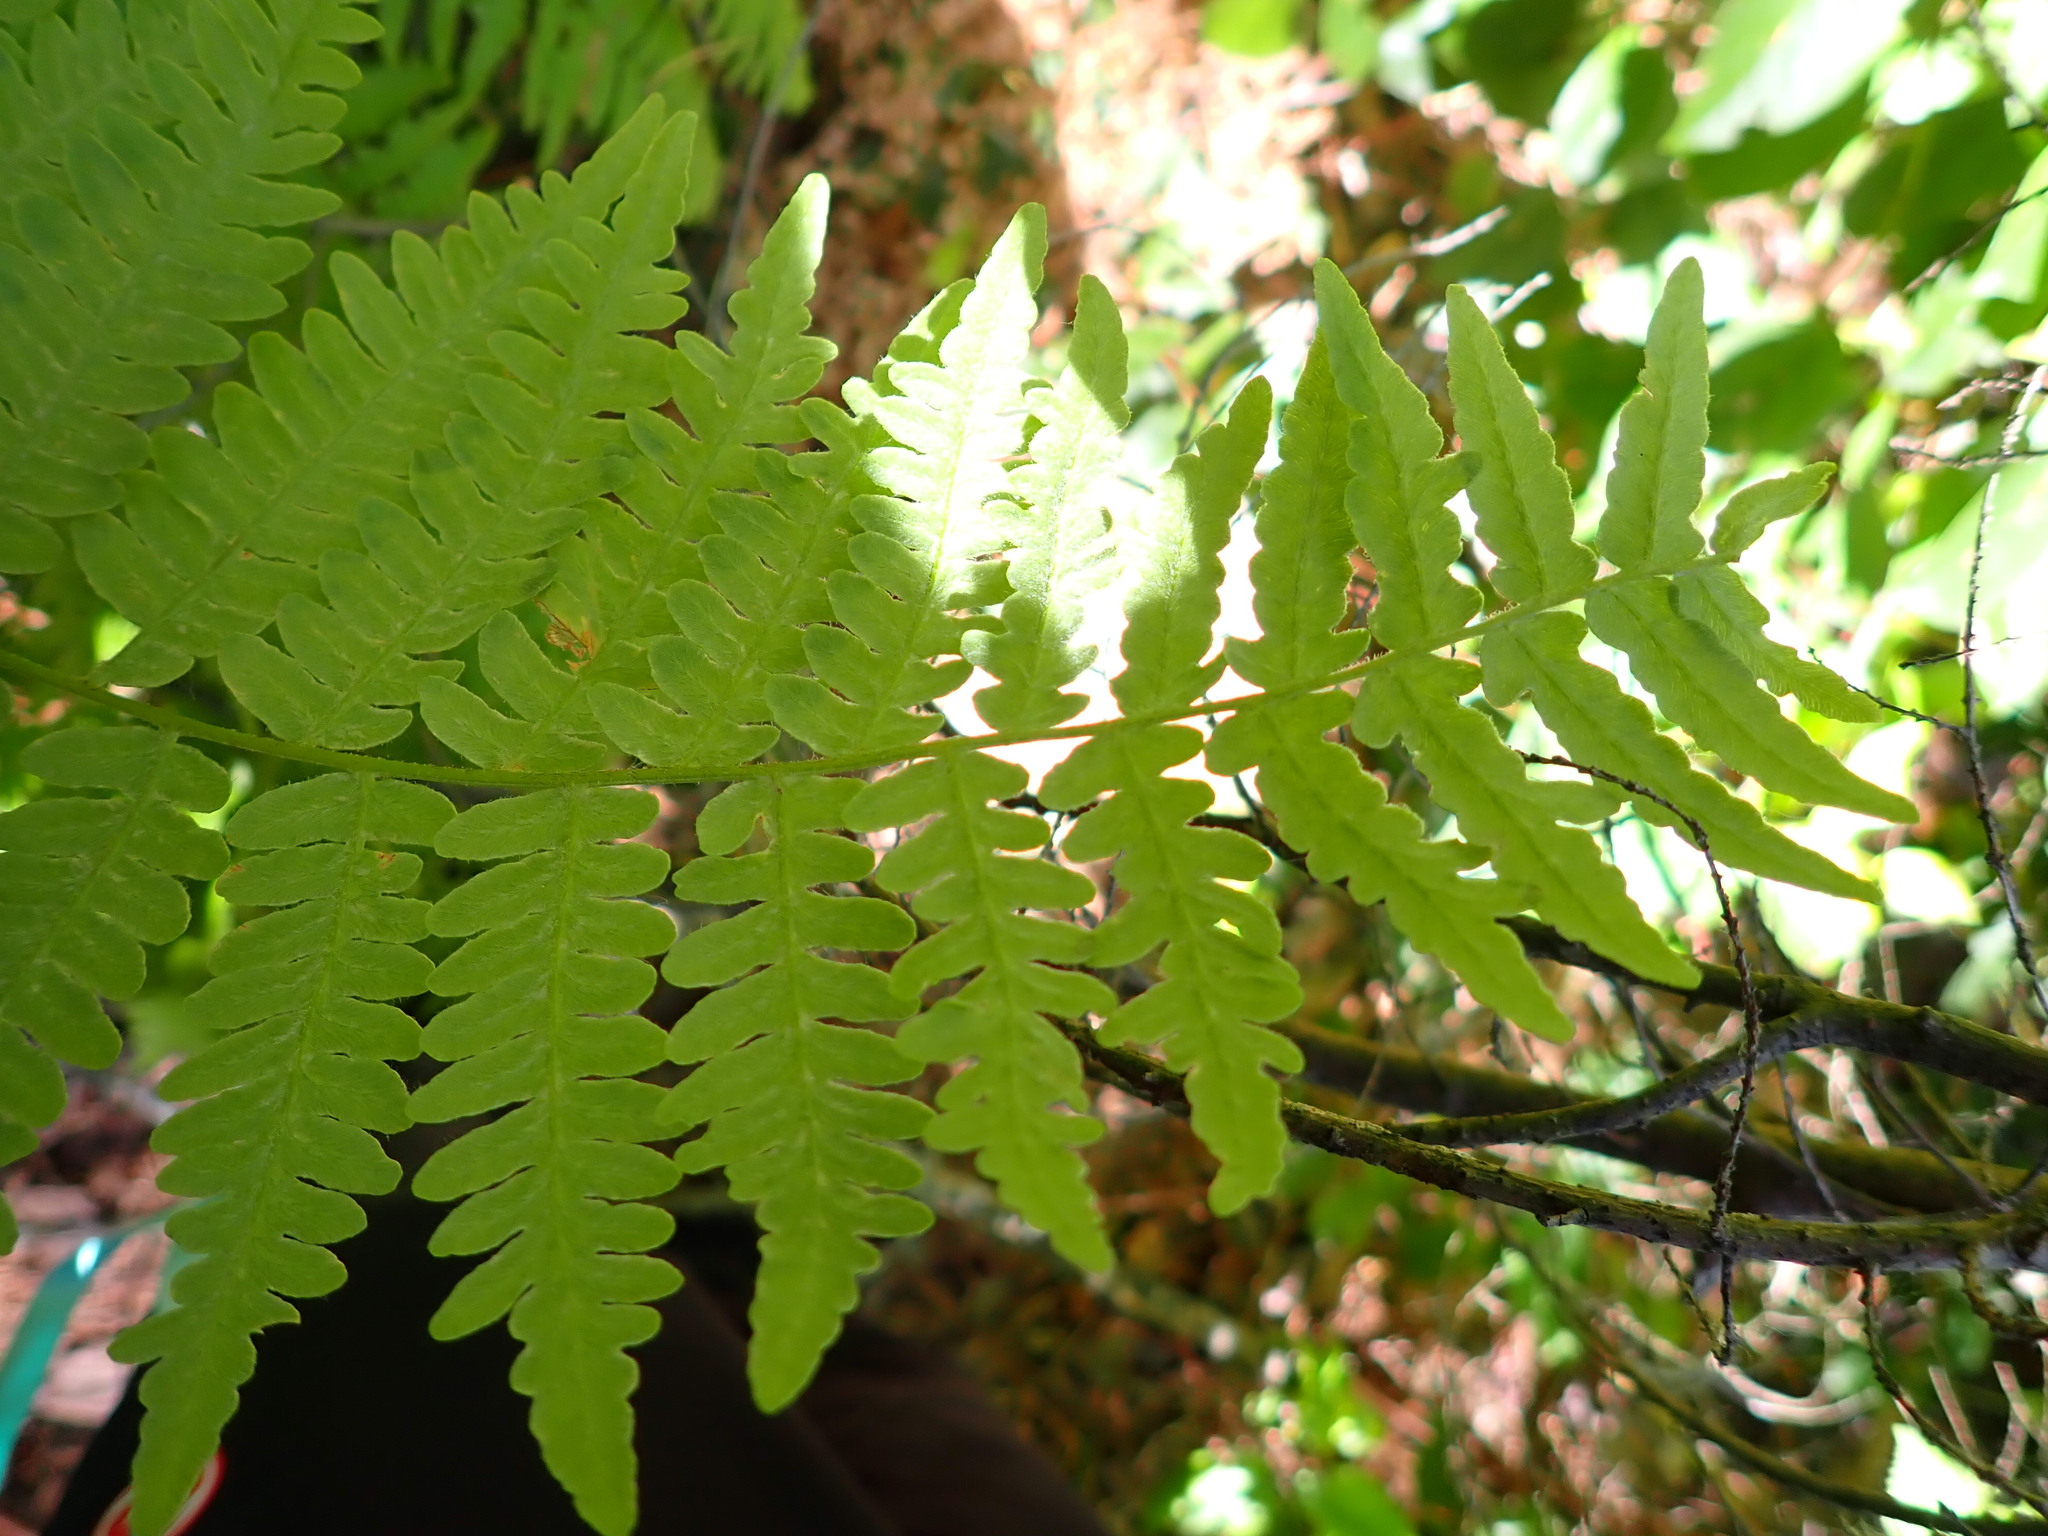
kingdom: Plantae
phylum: Tracheophyta
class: Polypodiopsida
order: Polypodiales
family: Dennstaedtiaceae
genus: Pteridium
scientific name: Pteridium aquilinum
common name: Bracken
